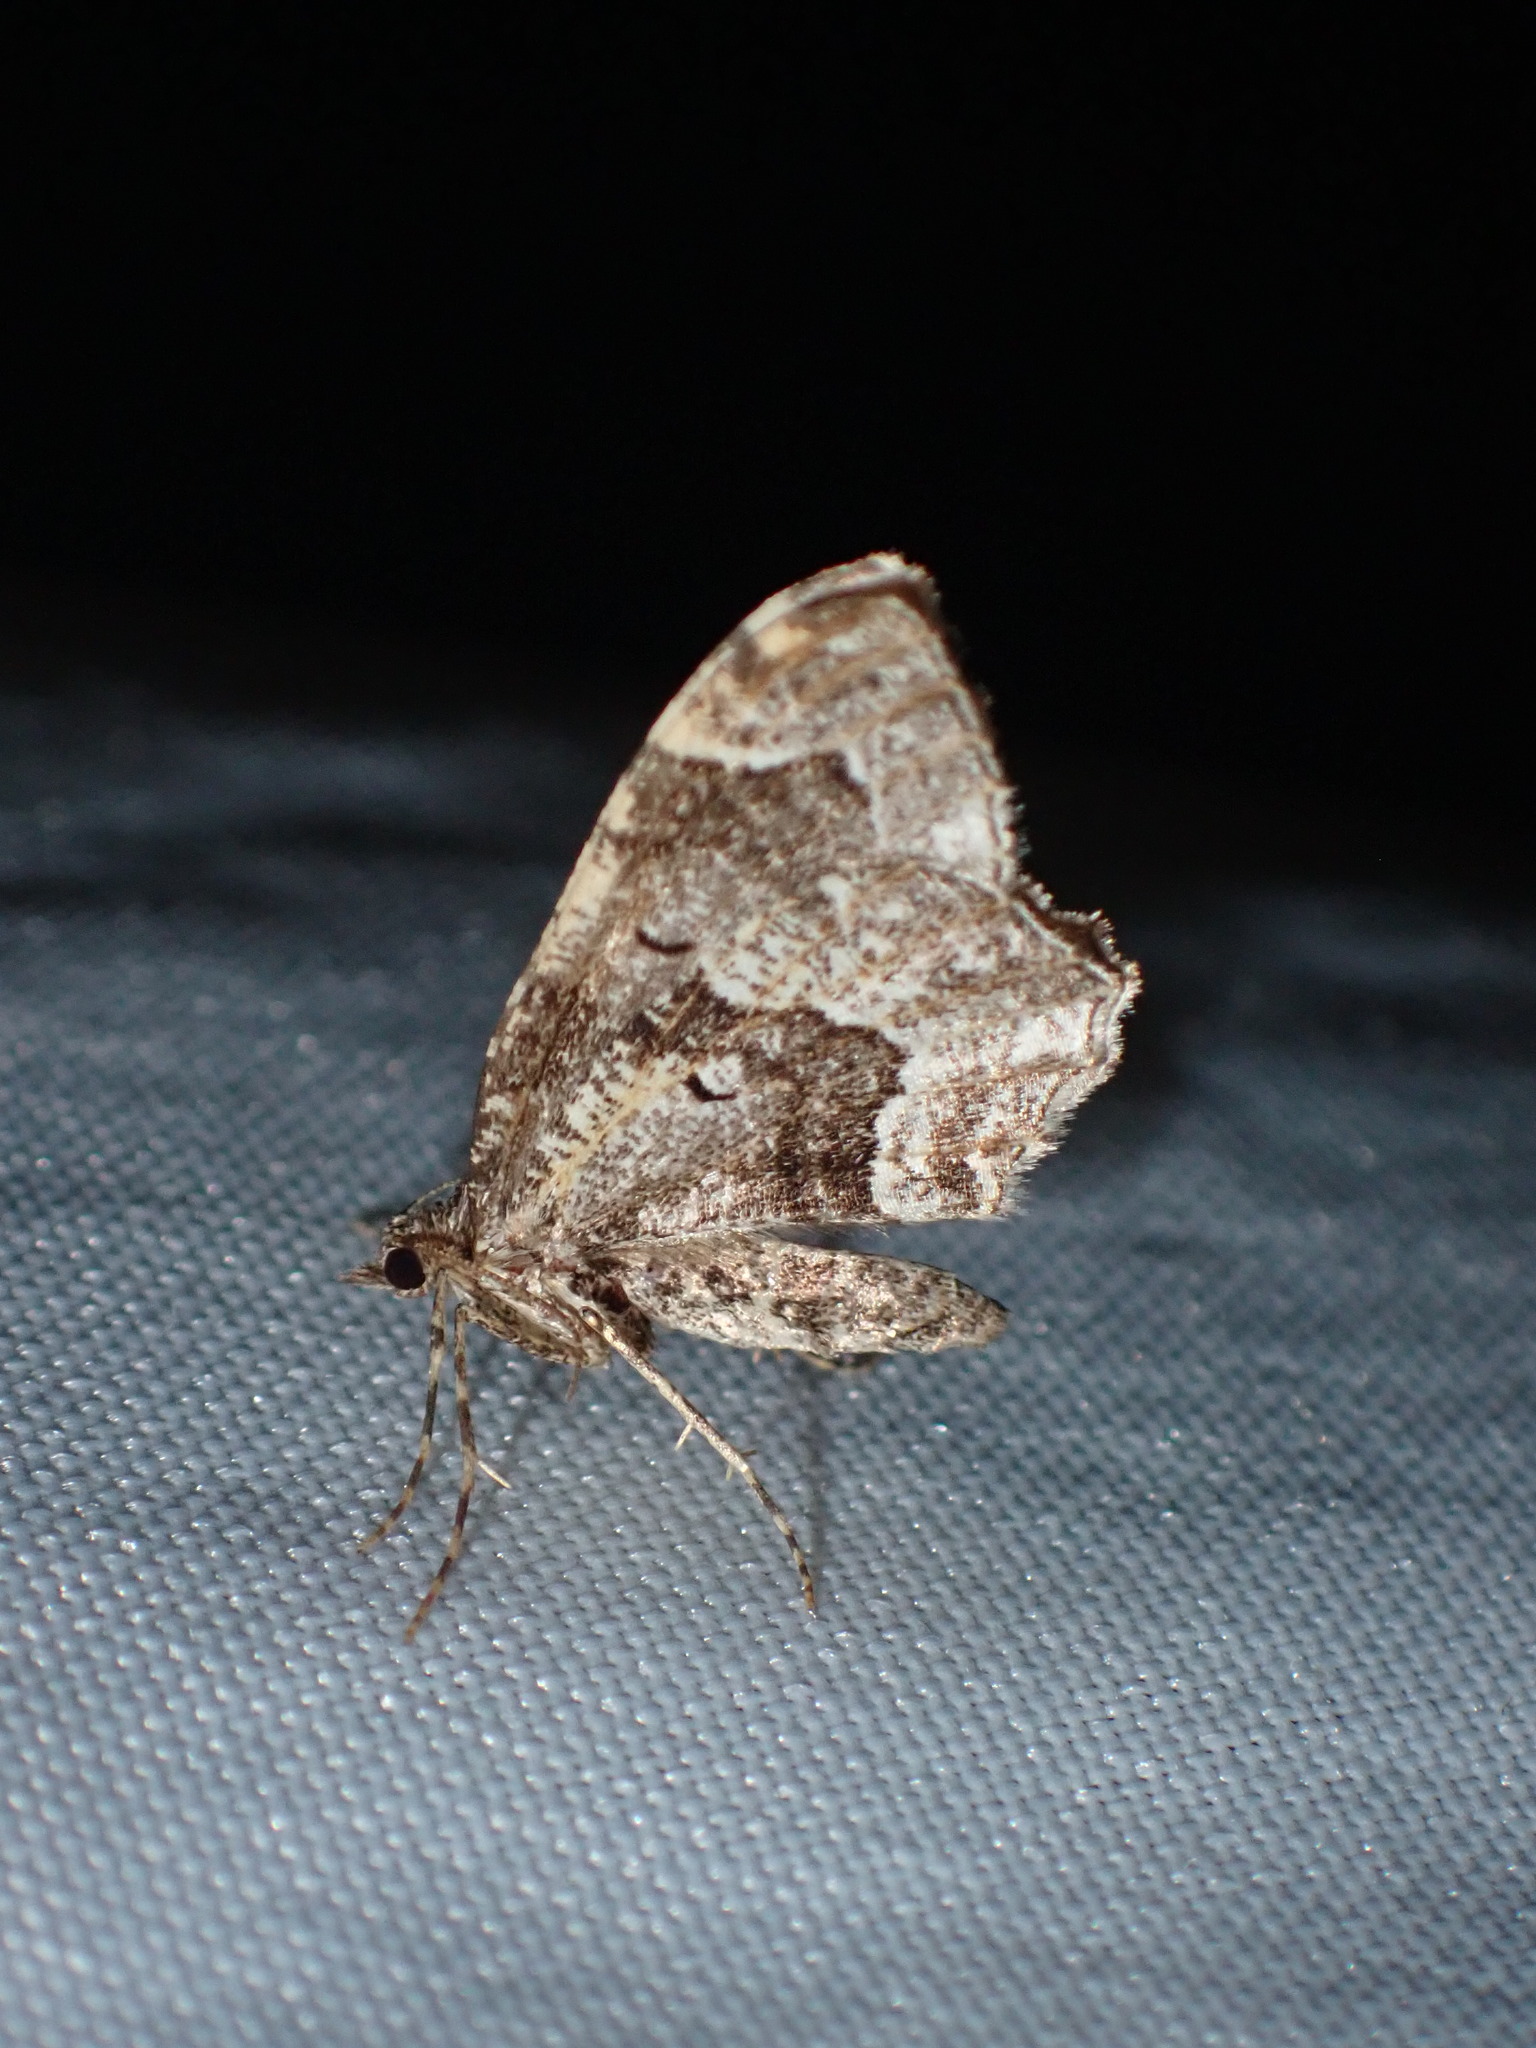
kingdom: Animalia
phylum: Arthropoda
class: Insecta
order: Lepidoptera
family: Geometridae
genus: Ceratodalia
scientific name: Ceratodalia gueneata
